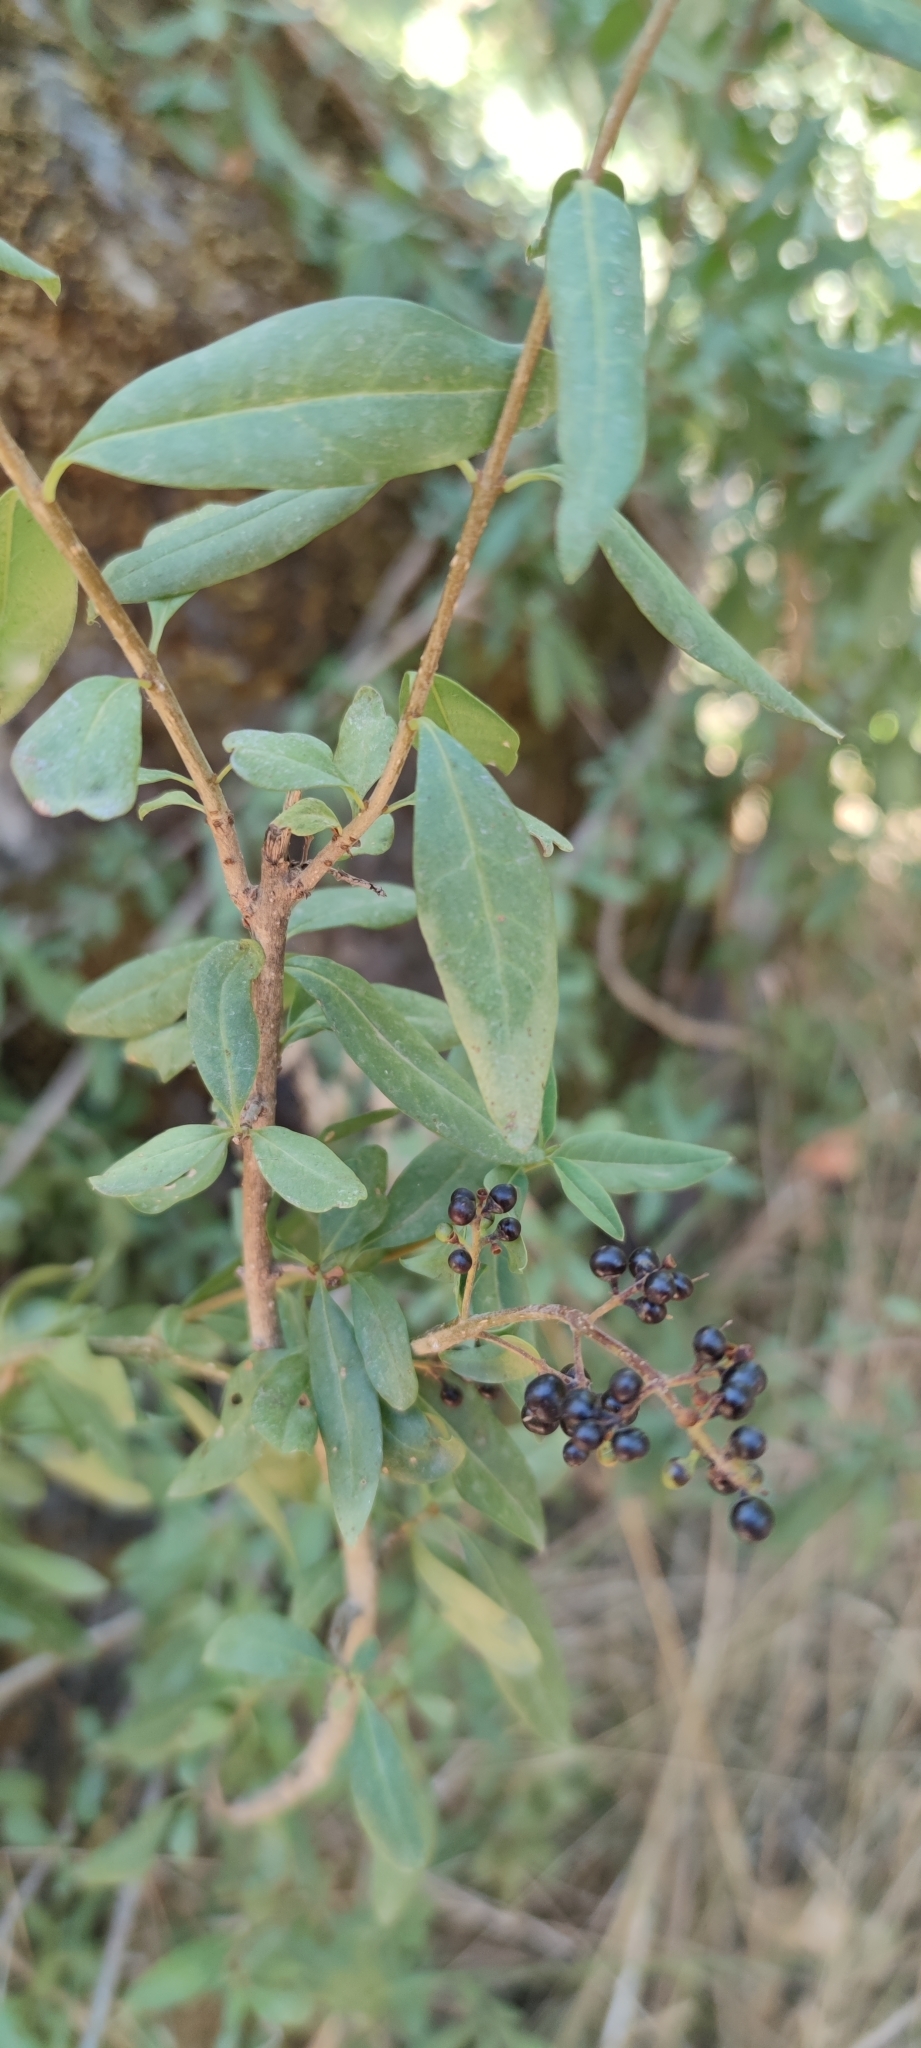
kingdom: Plantae
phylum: Tracheophyta
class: Magnoliopsida
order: Lamiales
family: Oleaceae
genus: Ligustrum
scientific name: Ligustrum vulgare
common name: Wild privet
